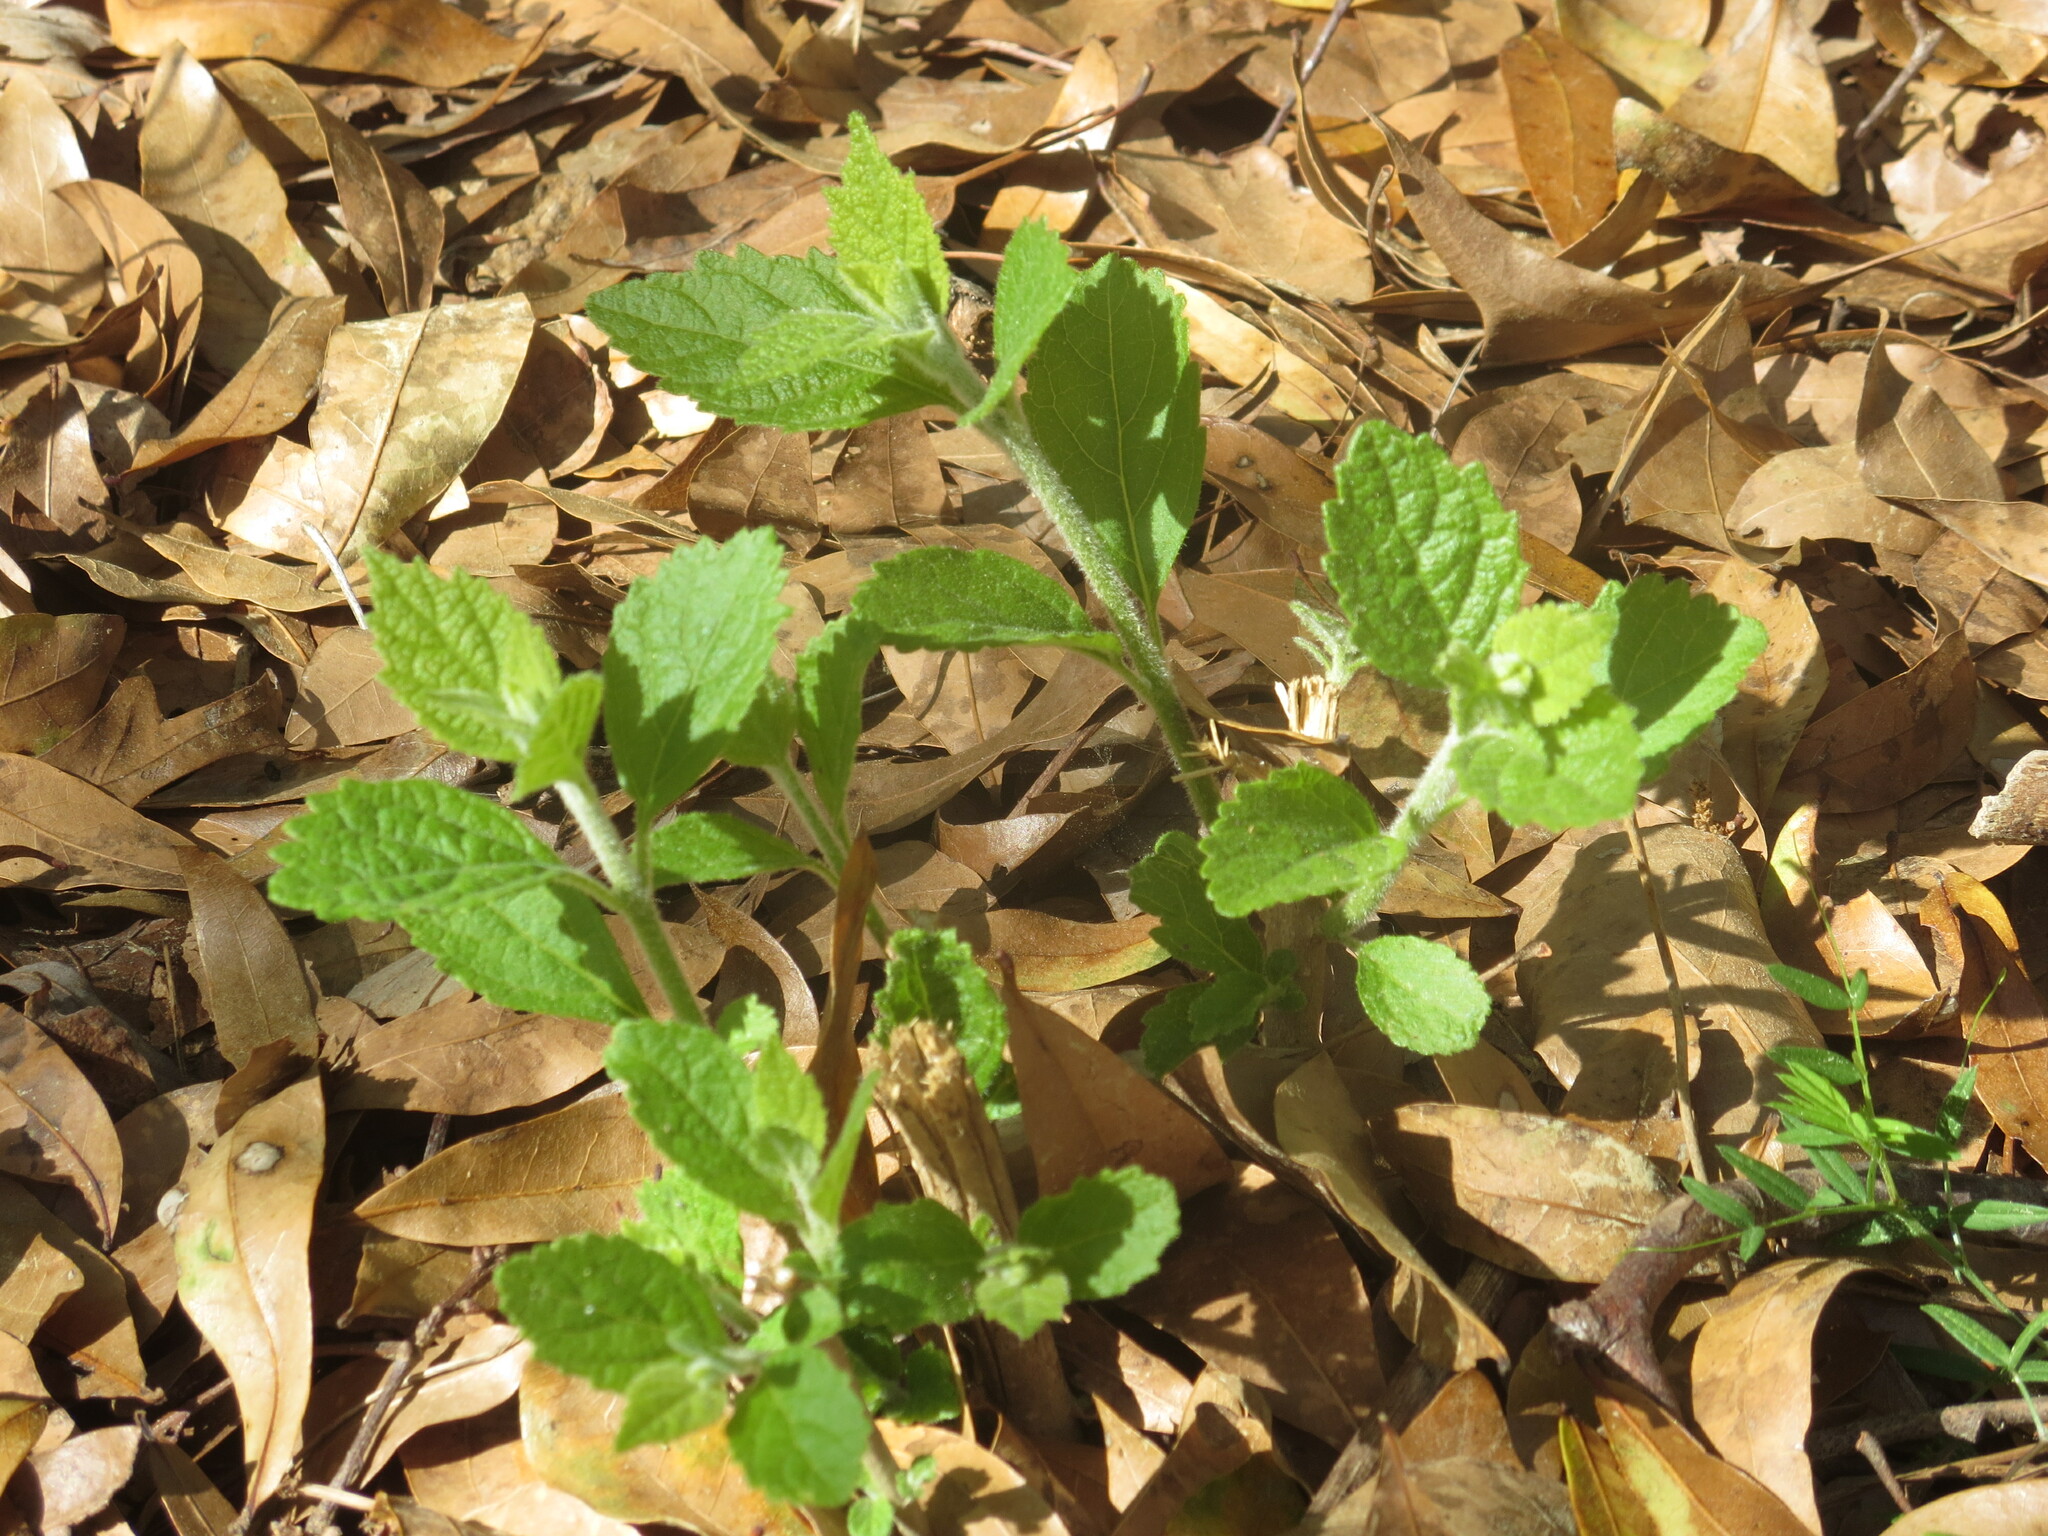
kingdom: Plantae
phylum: Tracheophyta
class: Magnoliopsida
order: Lamiales
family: Lamiaceae
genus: Callicarpa
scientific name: Callicarpa americana
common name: American beautyberry
